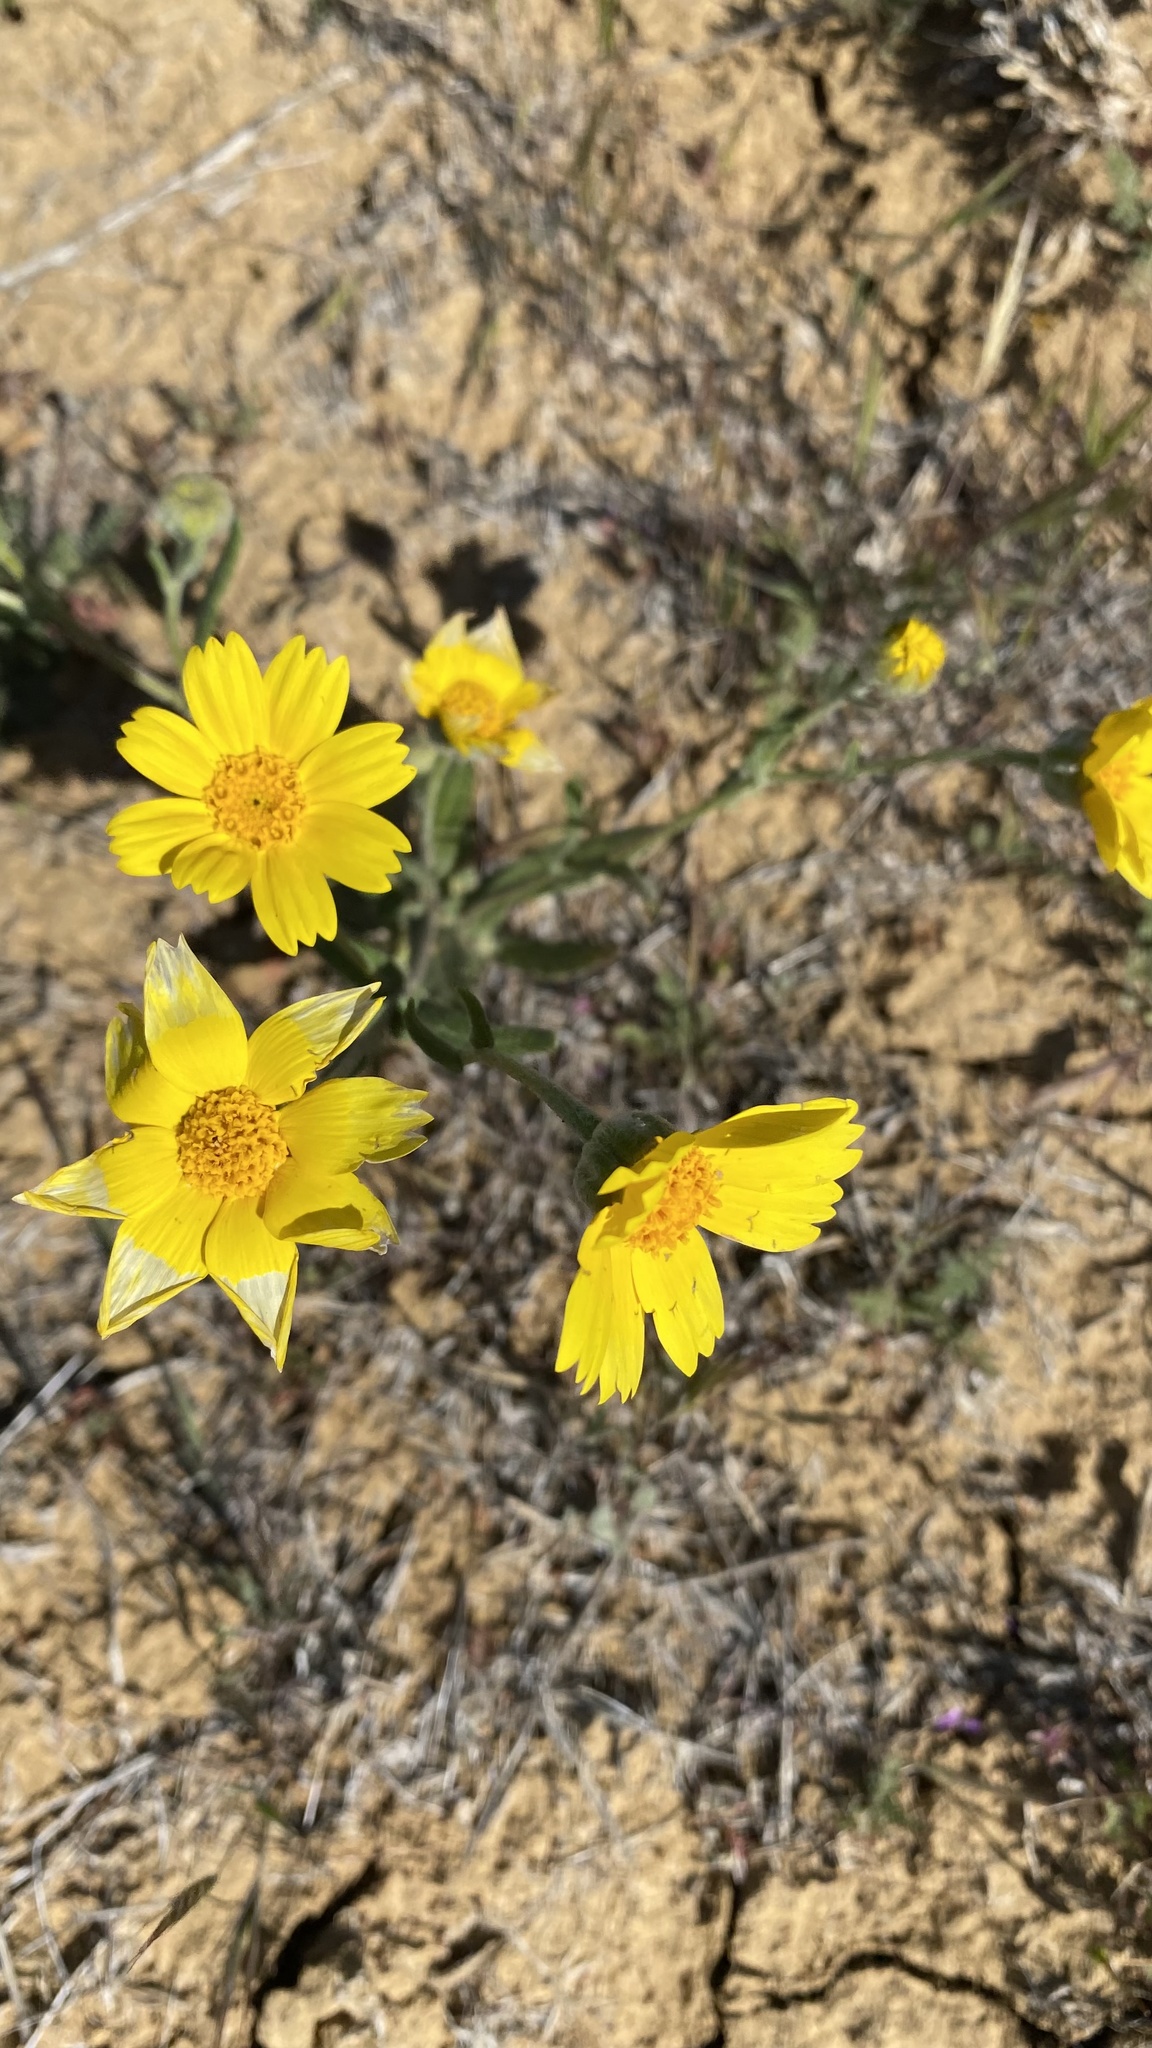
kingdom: Plantae
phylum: Tracheophyta
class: Magnoliopsida
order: Asterales
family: Asteraceae
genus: Monolopia
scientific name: Monolopia lanceolata
